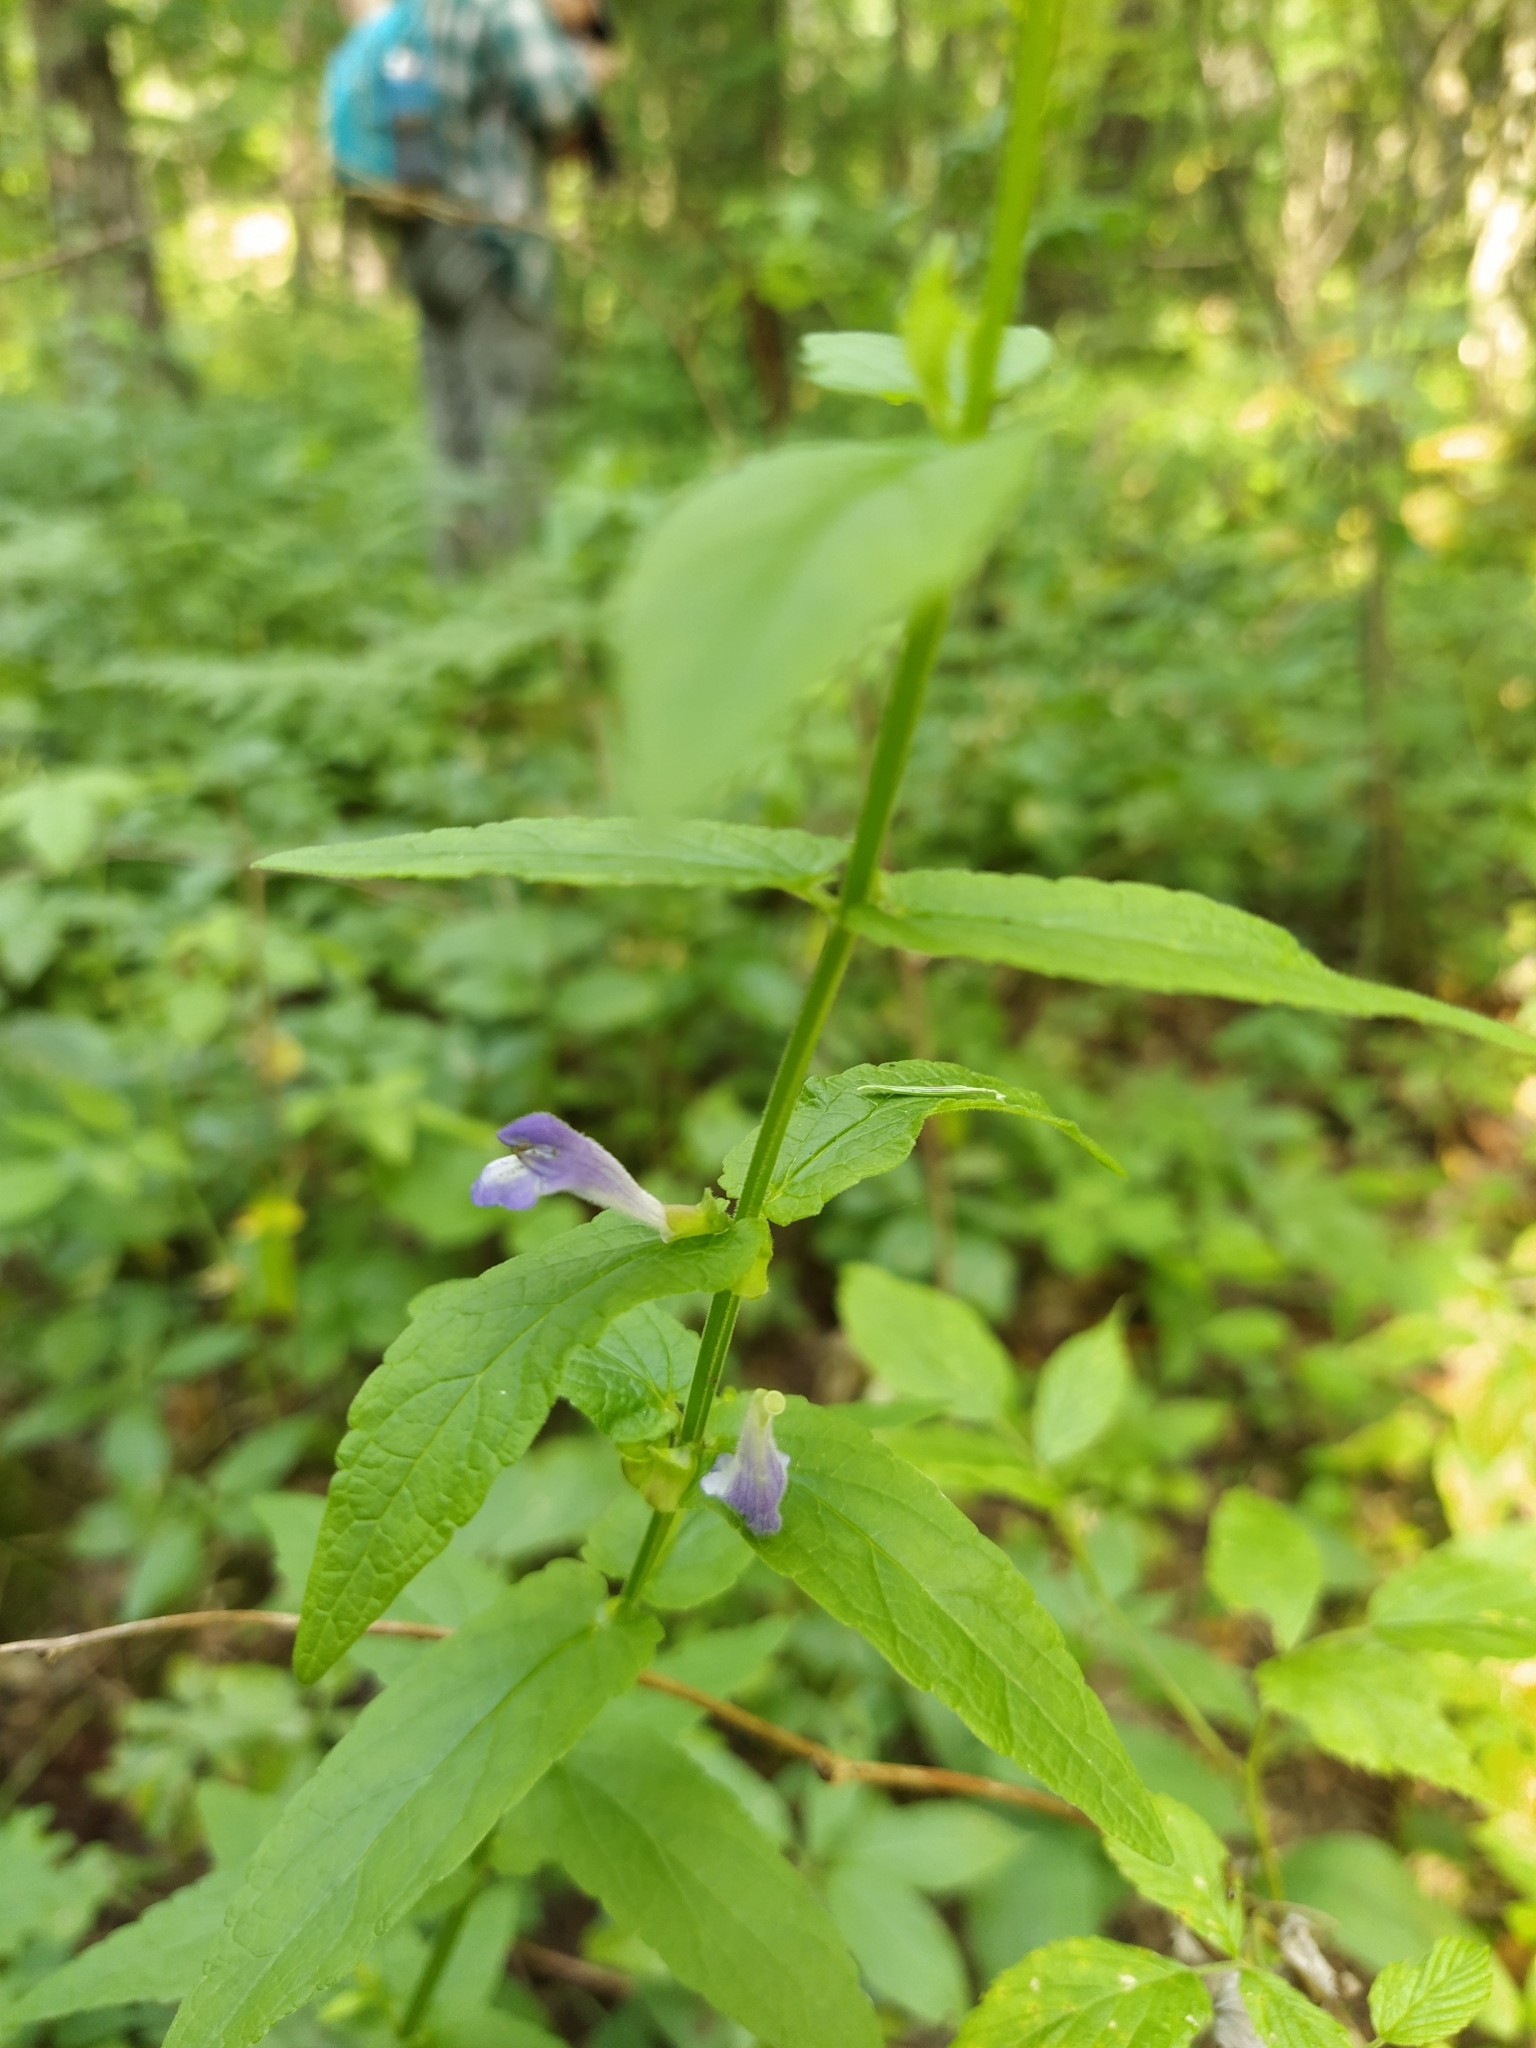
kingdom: Plantae
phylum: Tracheophyta
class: Magnoliopsida
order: Lamiales
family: Lamiaceae
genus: Scutellaria
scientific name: Scutellaria galericulata
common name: Skullcap
